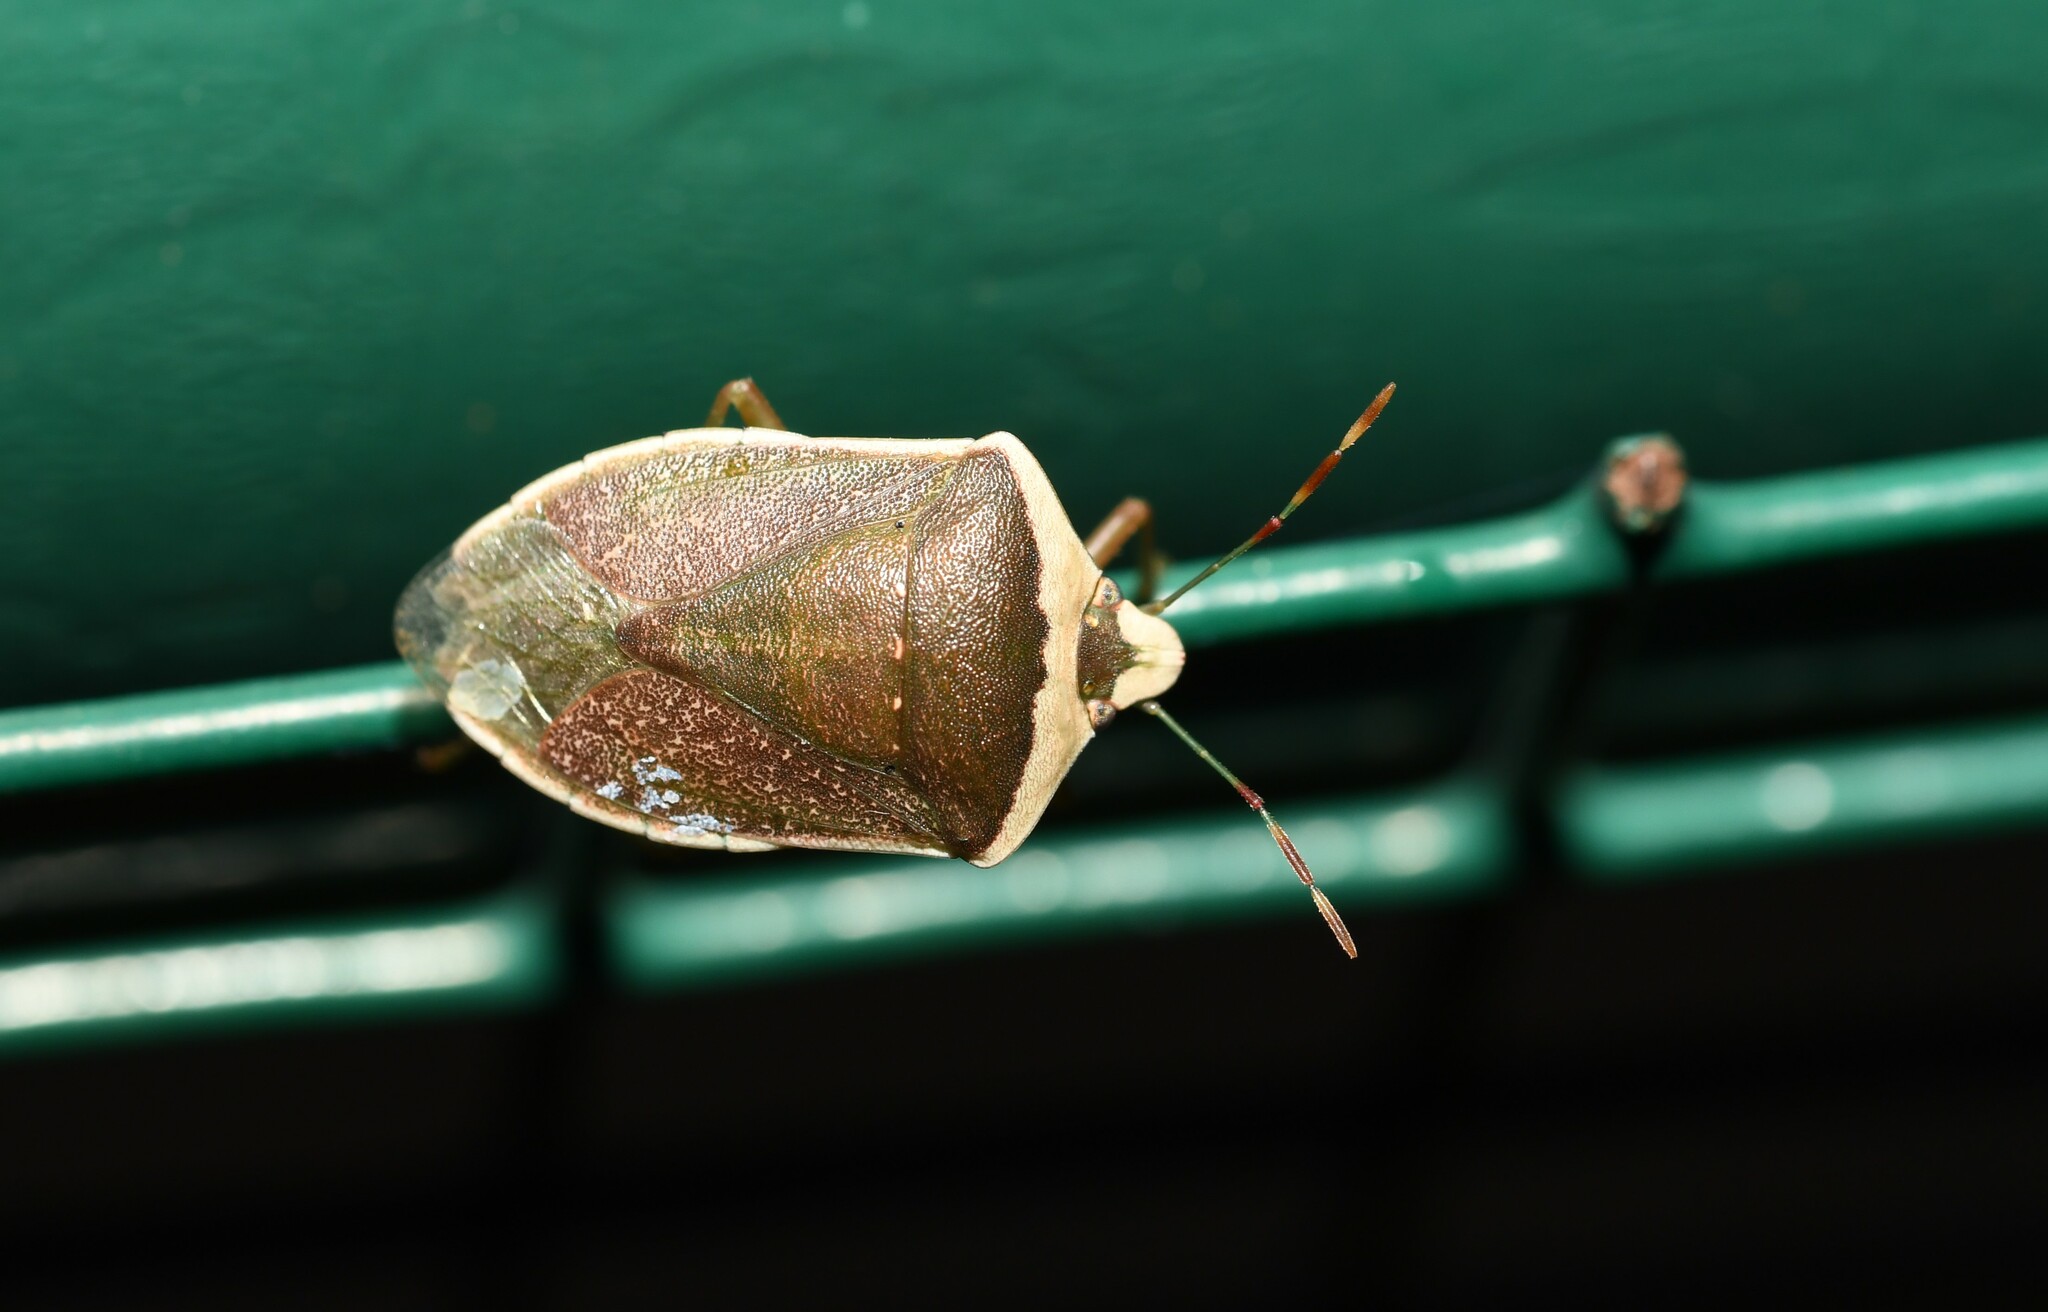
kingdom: Animalia
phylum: Arthropoda
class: Insecta
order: Hemiptera
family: Pentatomidae
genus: Nezara
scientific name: Nezara viridula
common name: Southern green stink bug
